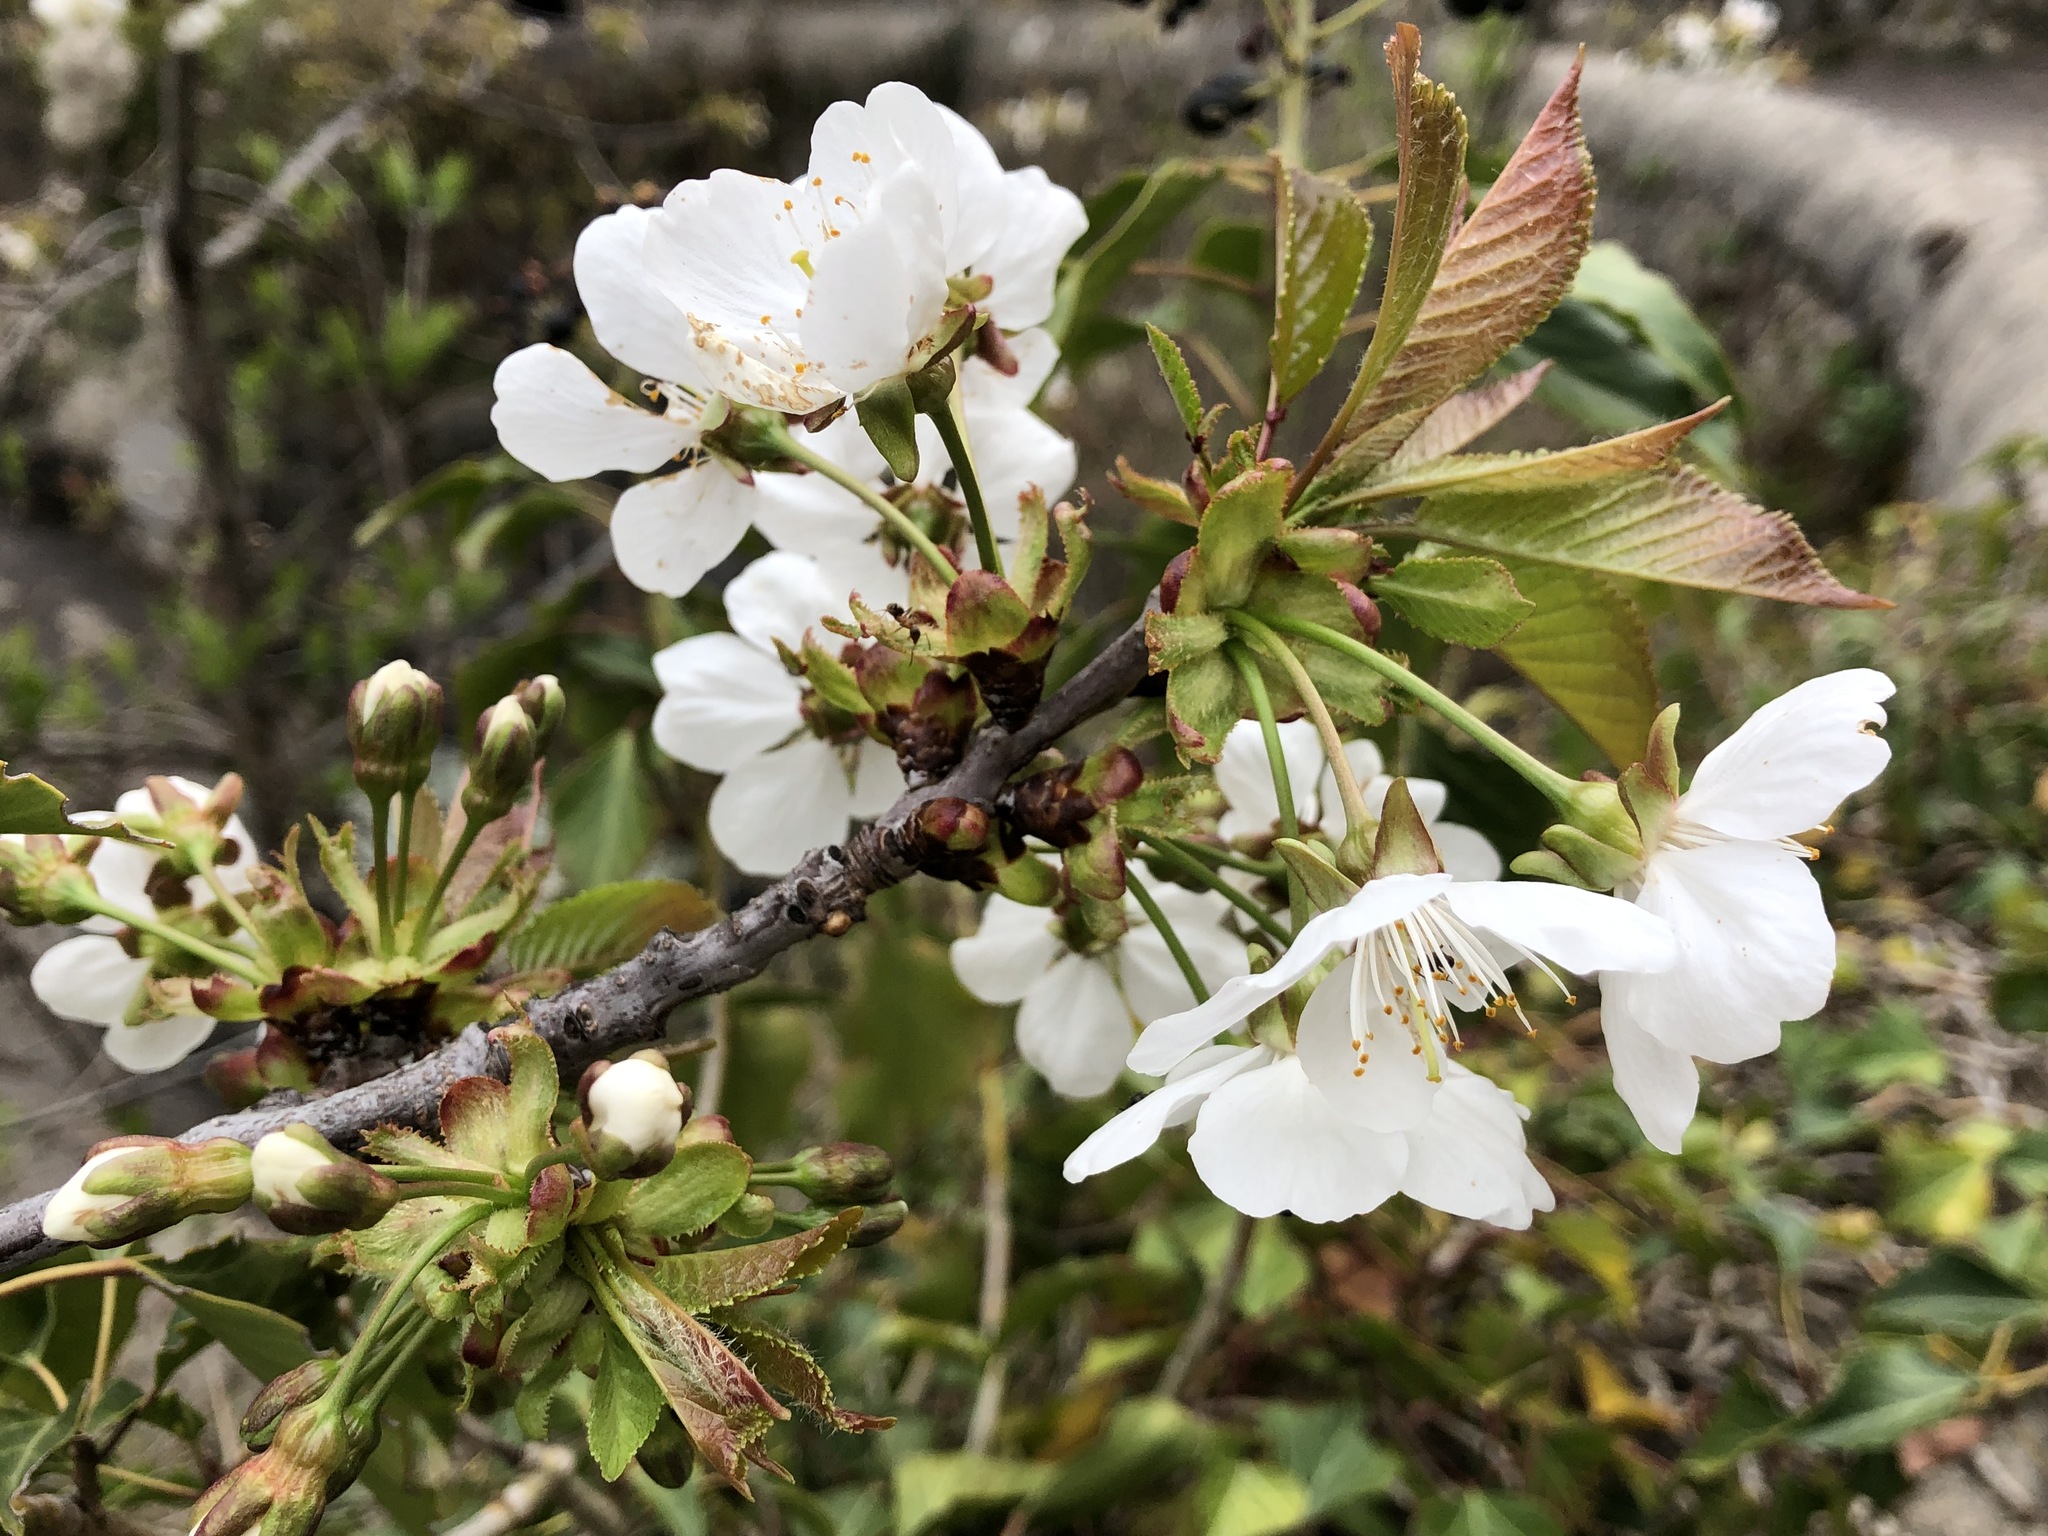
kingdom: Plantae
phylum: Tracheophyta
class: Magnoliopsida
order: Rosales
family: Rosaceae
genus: Prunus
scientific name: Prunus avium
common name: Sweet cherry
